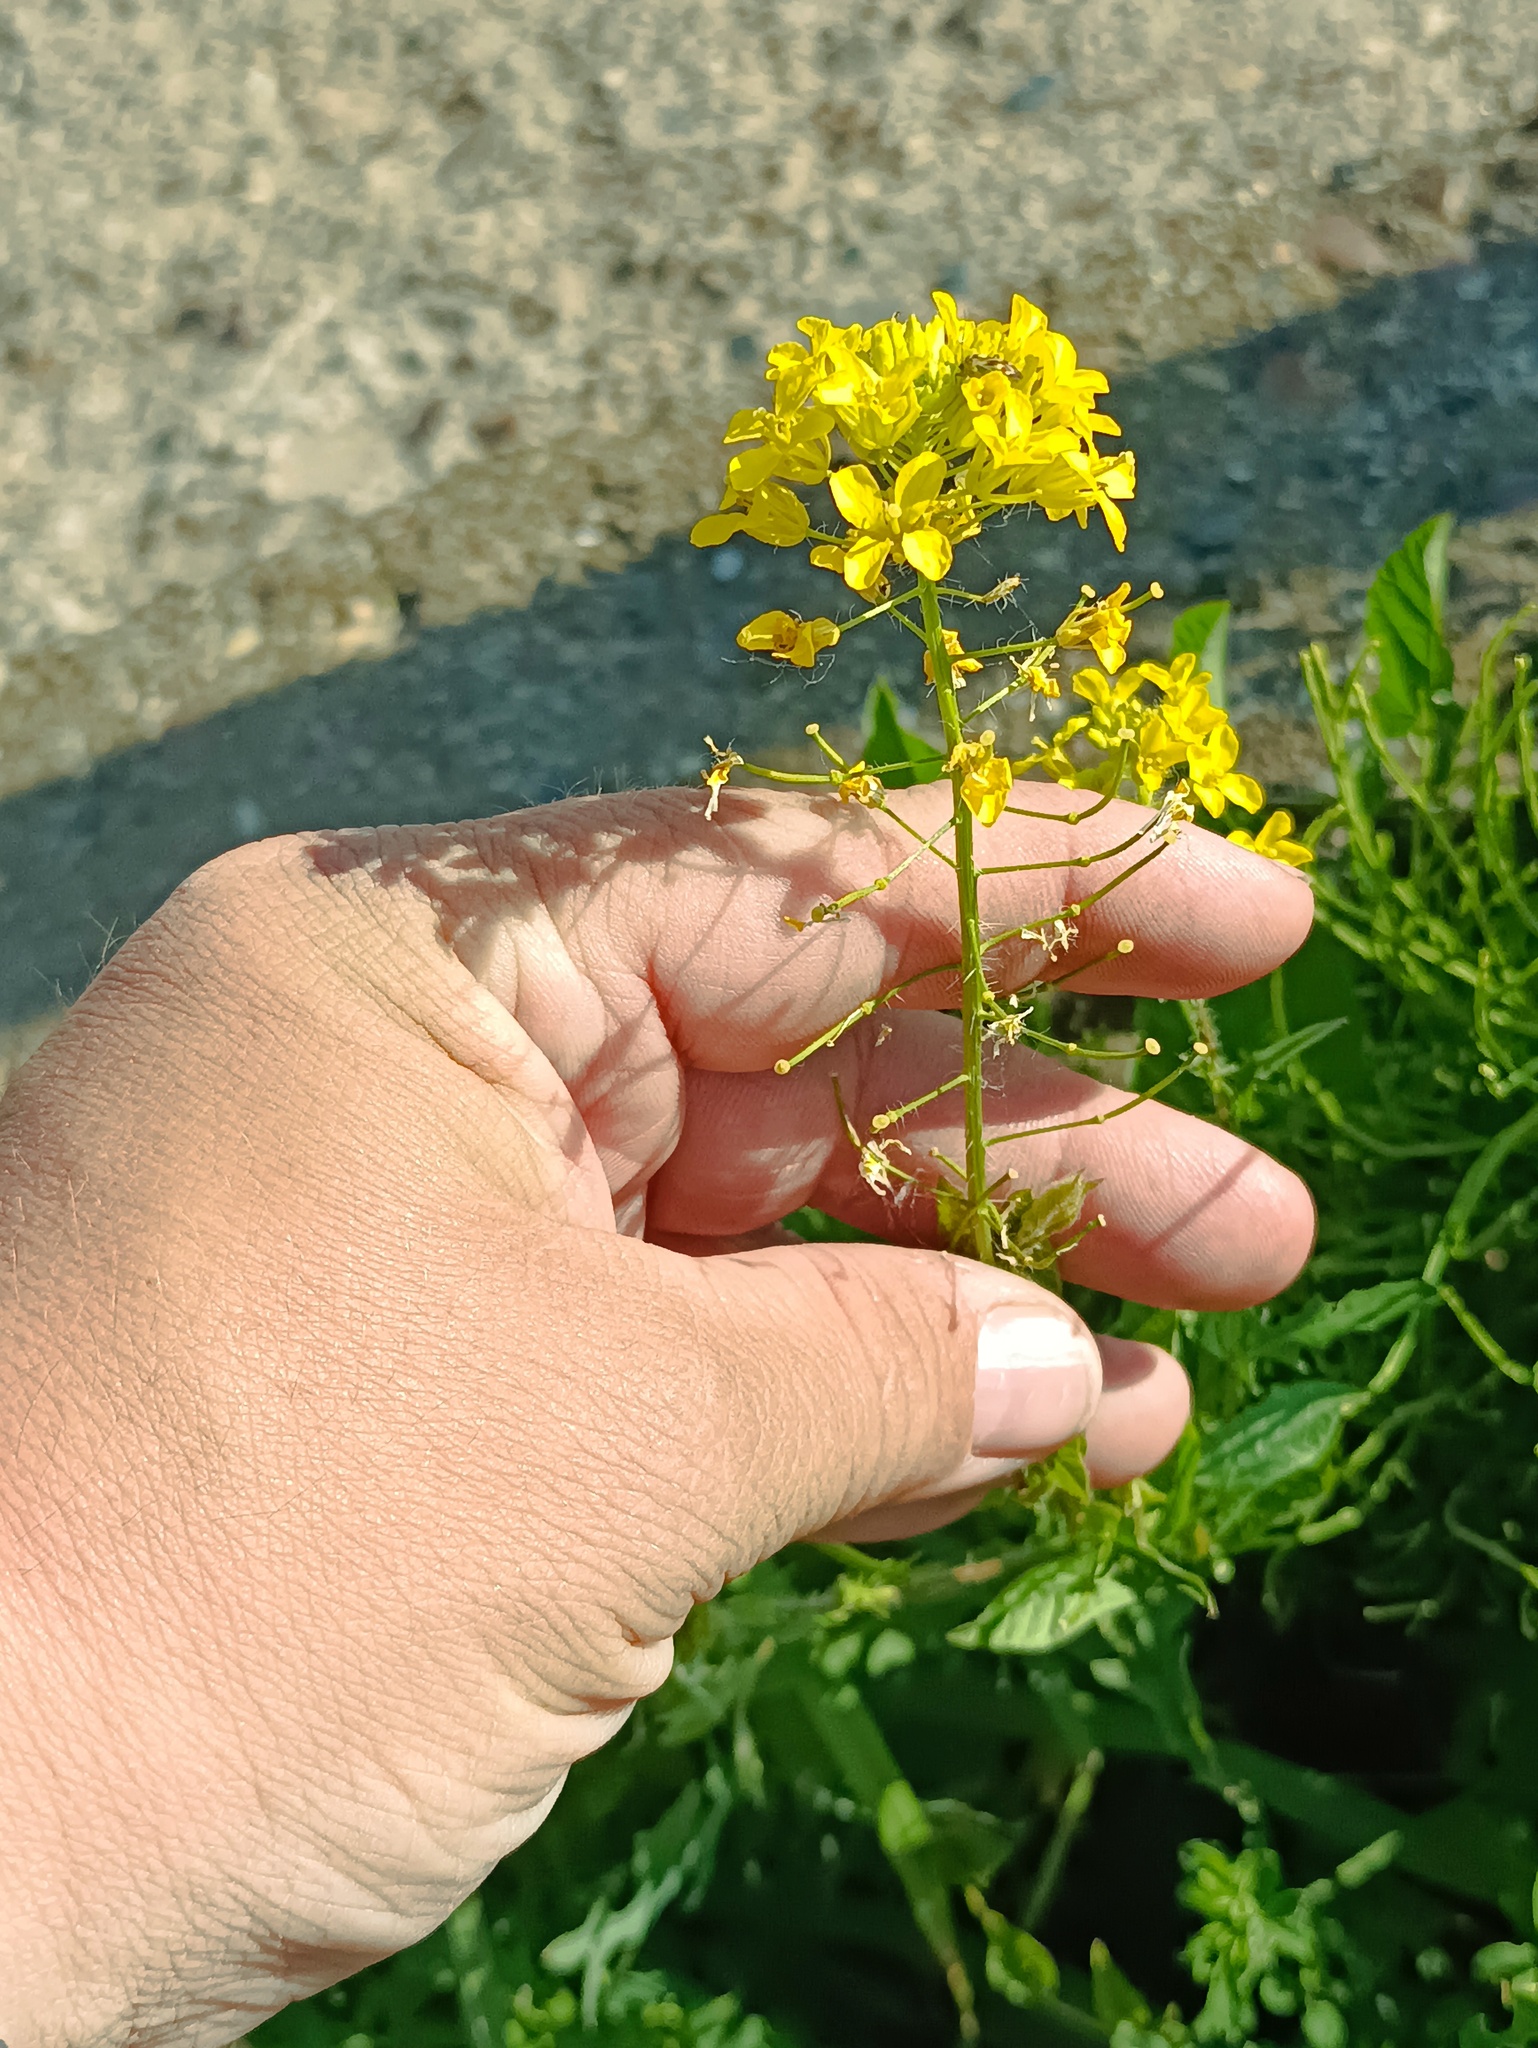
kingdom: Plantae
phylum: Tracheophyta
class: Magnoliopsida
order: Brassicales
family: Brassicaceae
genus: Sisymbrium
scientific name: Sisymbrium loeselii
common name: False london-rocket
